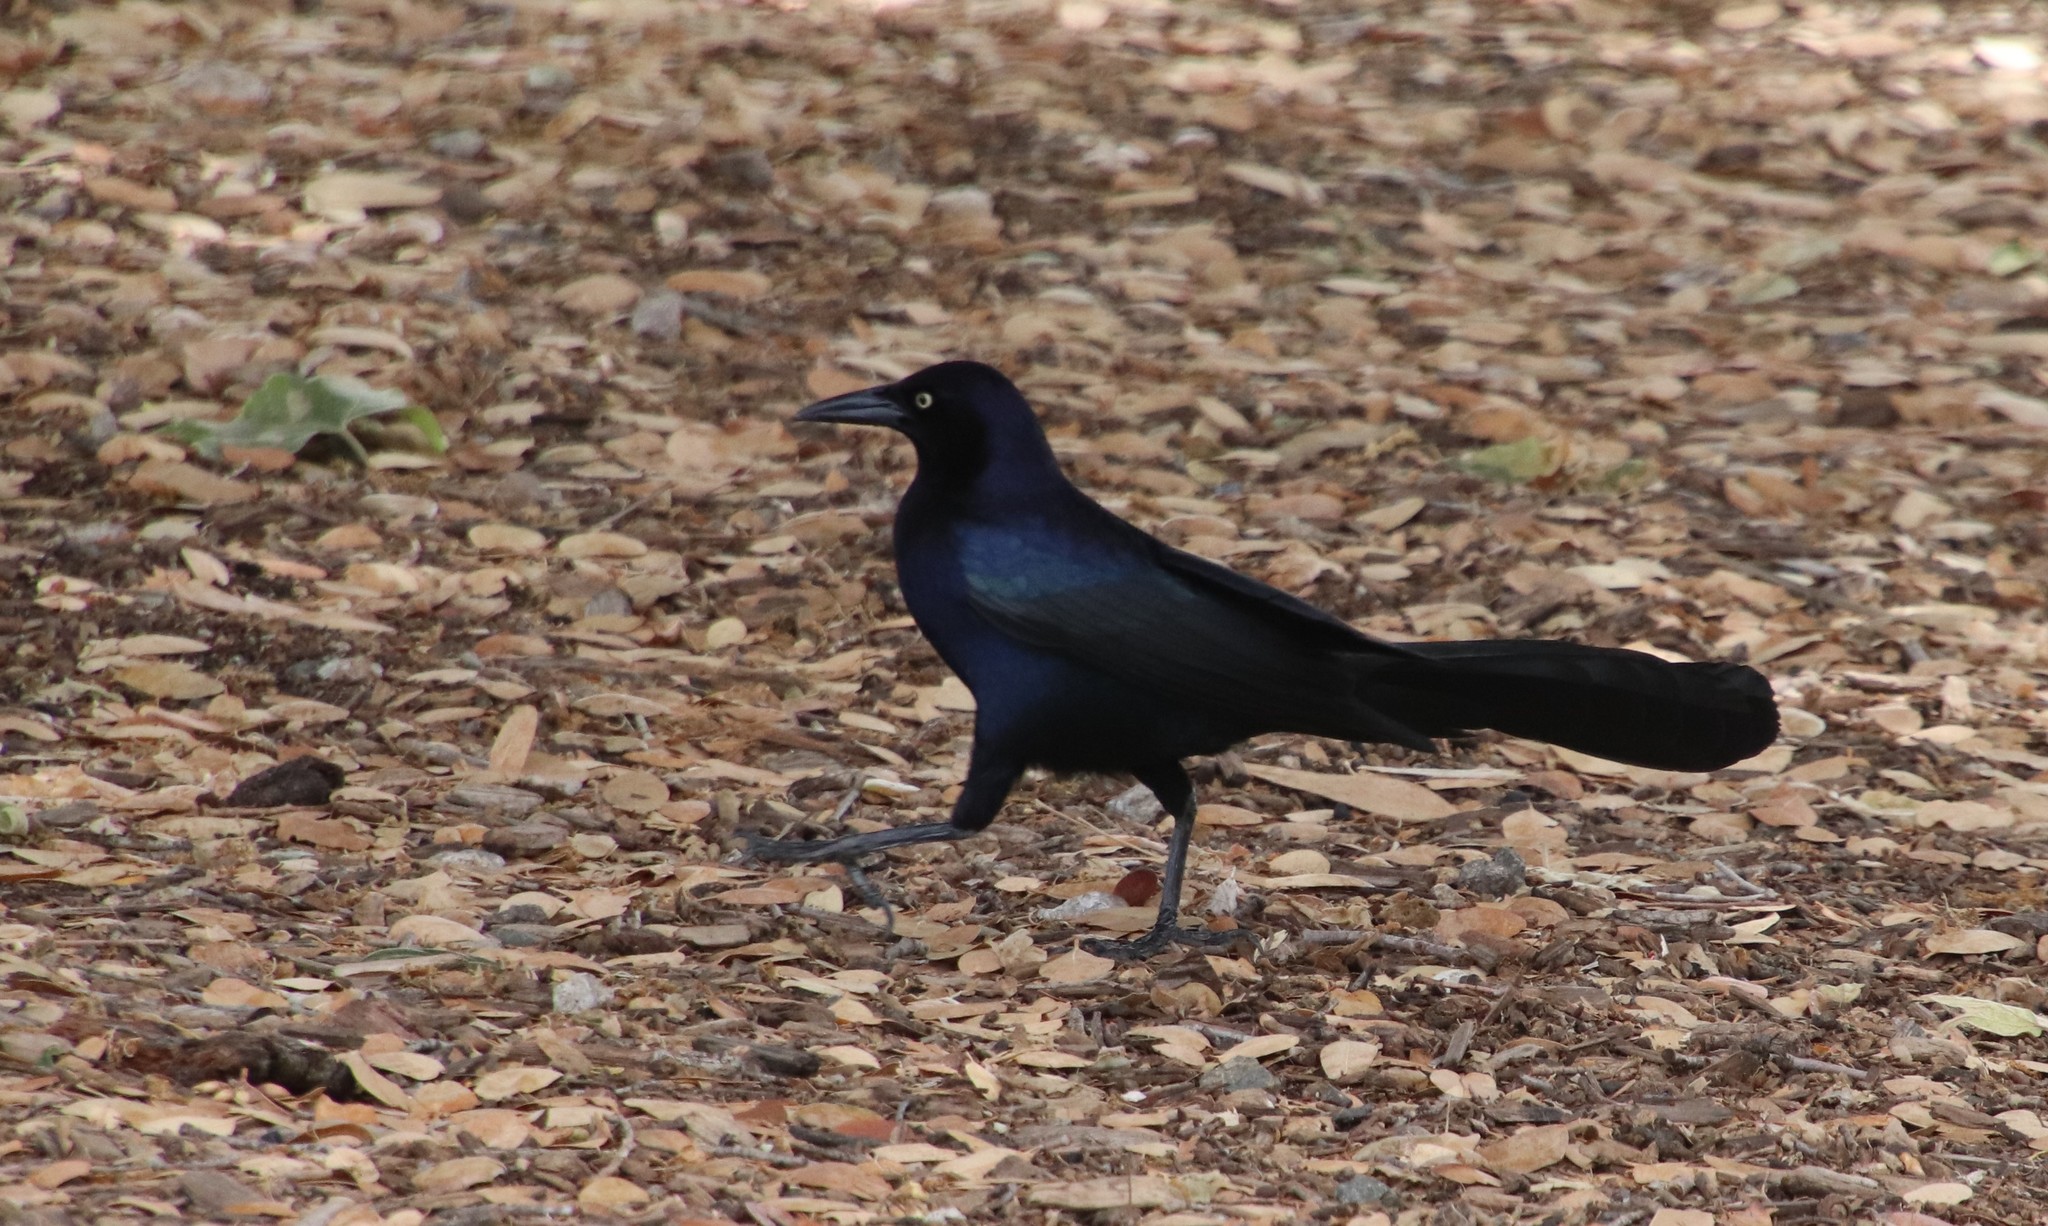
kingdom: Animalia
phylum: Chordata
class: Aves
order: Passeriformes
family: Icteridae
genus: Quiscalus
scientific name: Quiscalus mexicanus
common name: Great-tailed grackle
